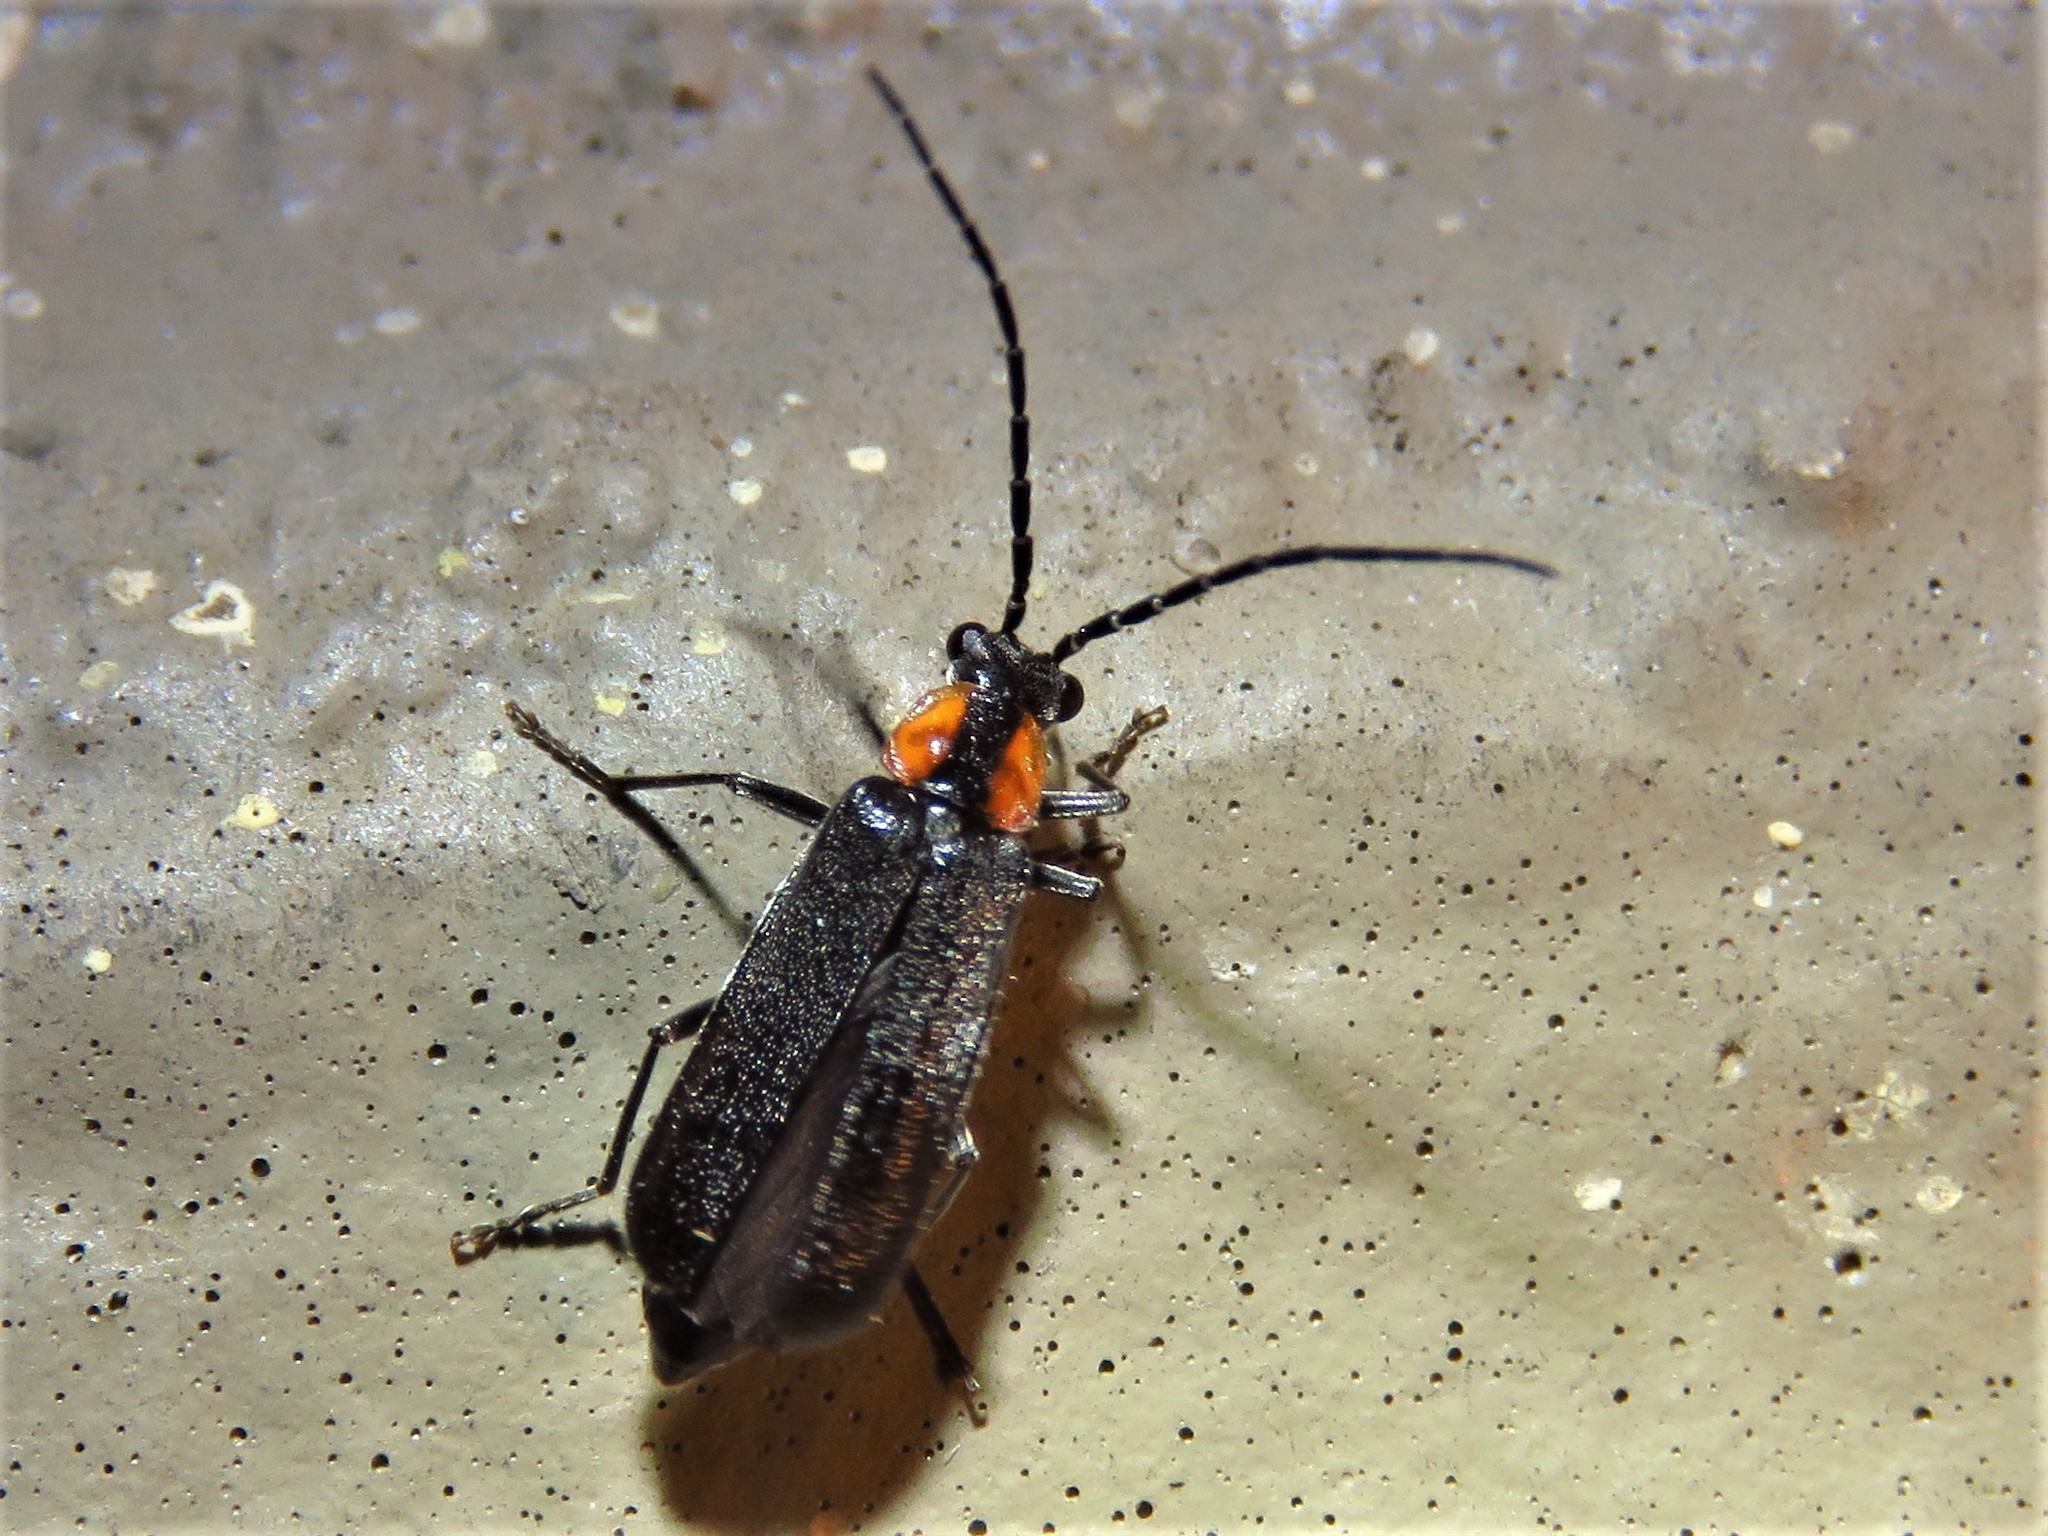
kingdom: Animalia
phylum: Arthropoda
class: Insecta
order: Coleoptera
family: Cantharidae
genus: Rhagonycha
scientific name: Rhagonycha lineola
